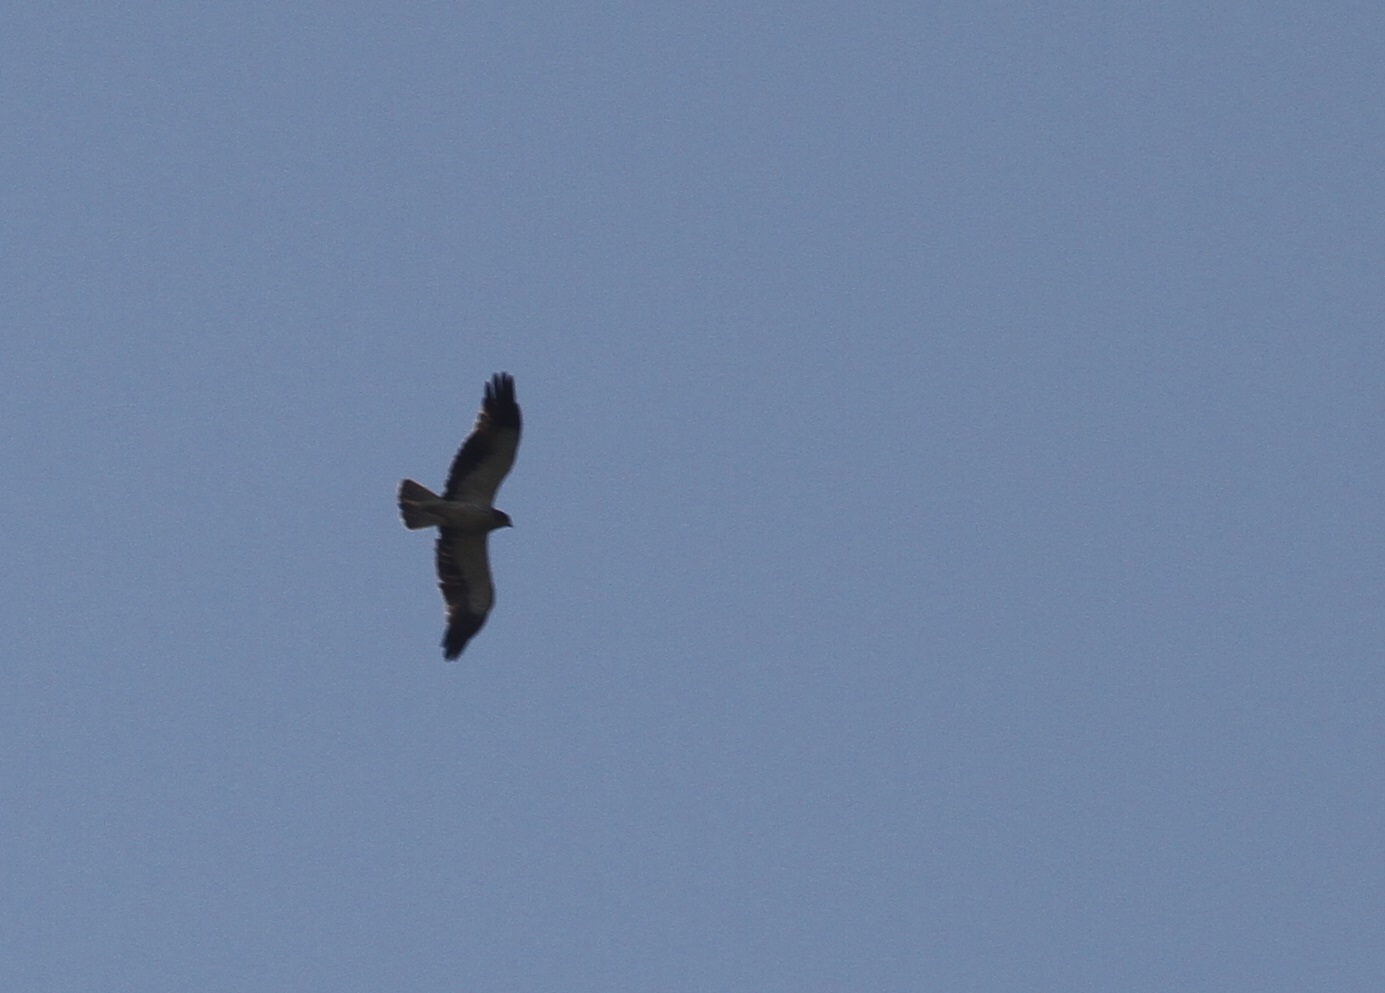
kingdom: Animalia
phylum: Chordata
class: Aves
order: Accipitriformes
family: Accipitridae
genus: Hieraaetus
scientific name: Hieraaetus pennatus
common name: Booted eagle
